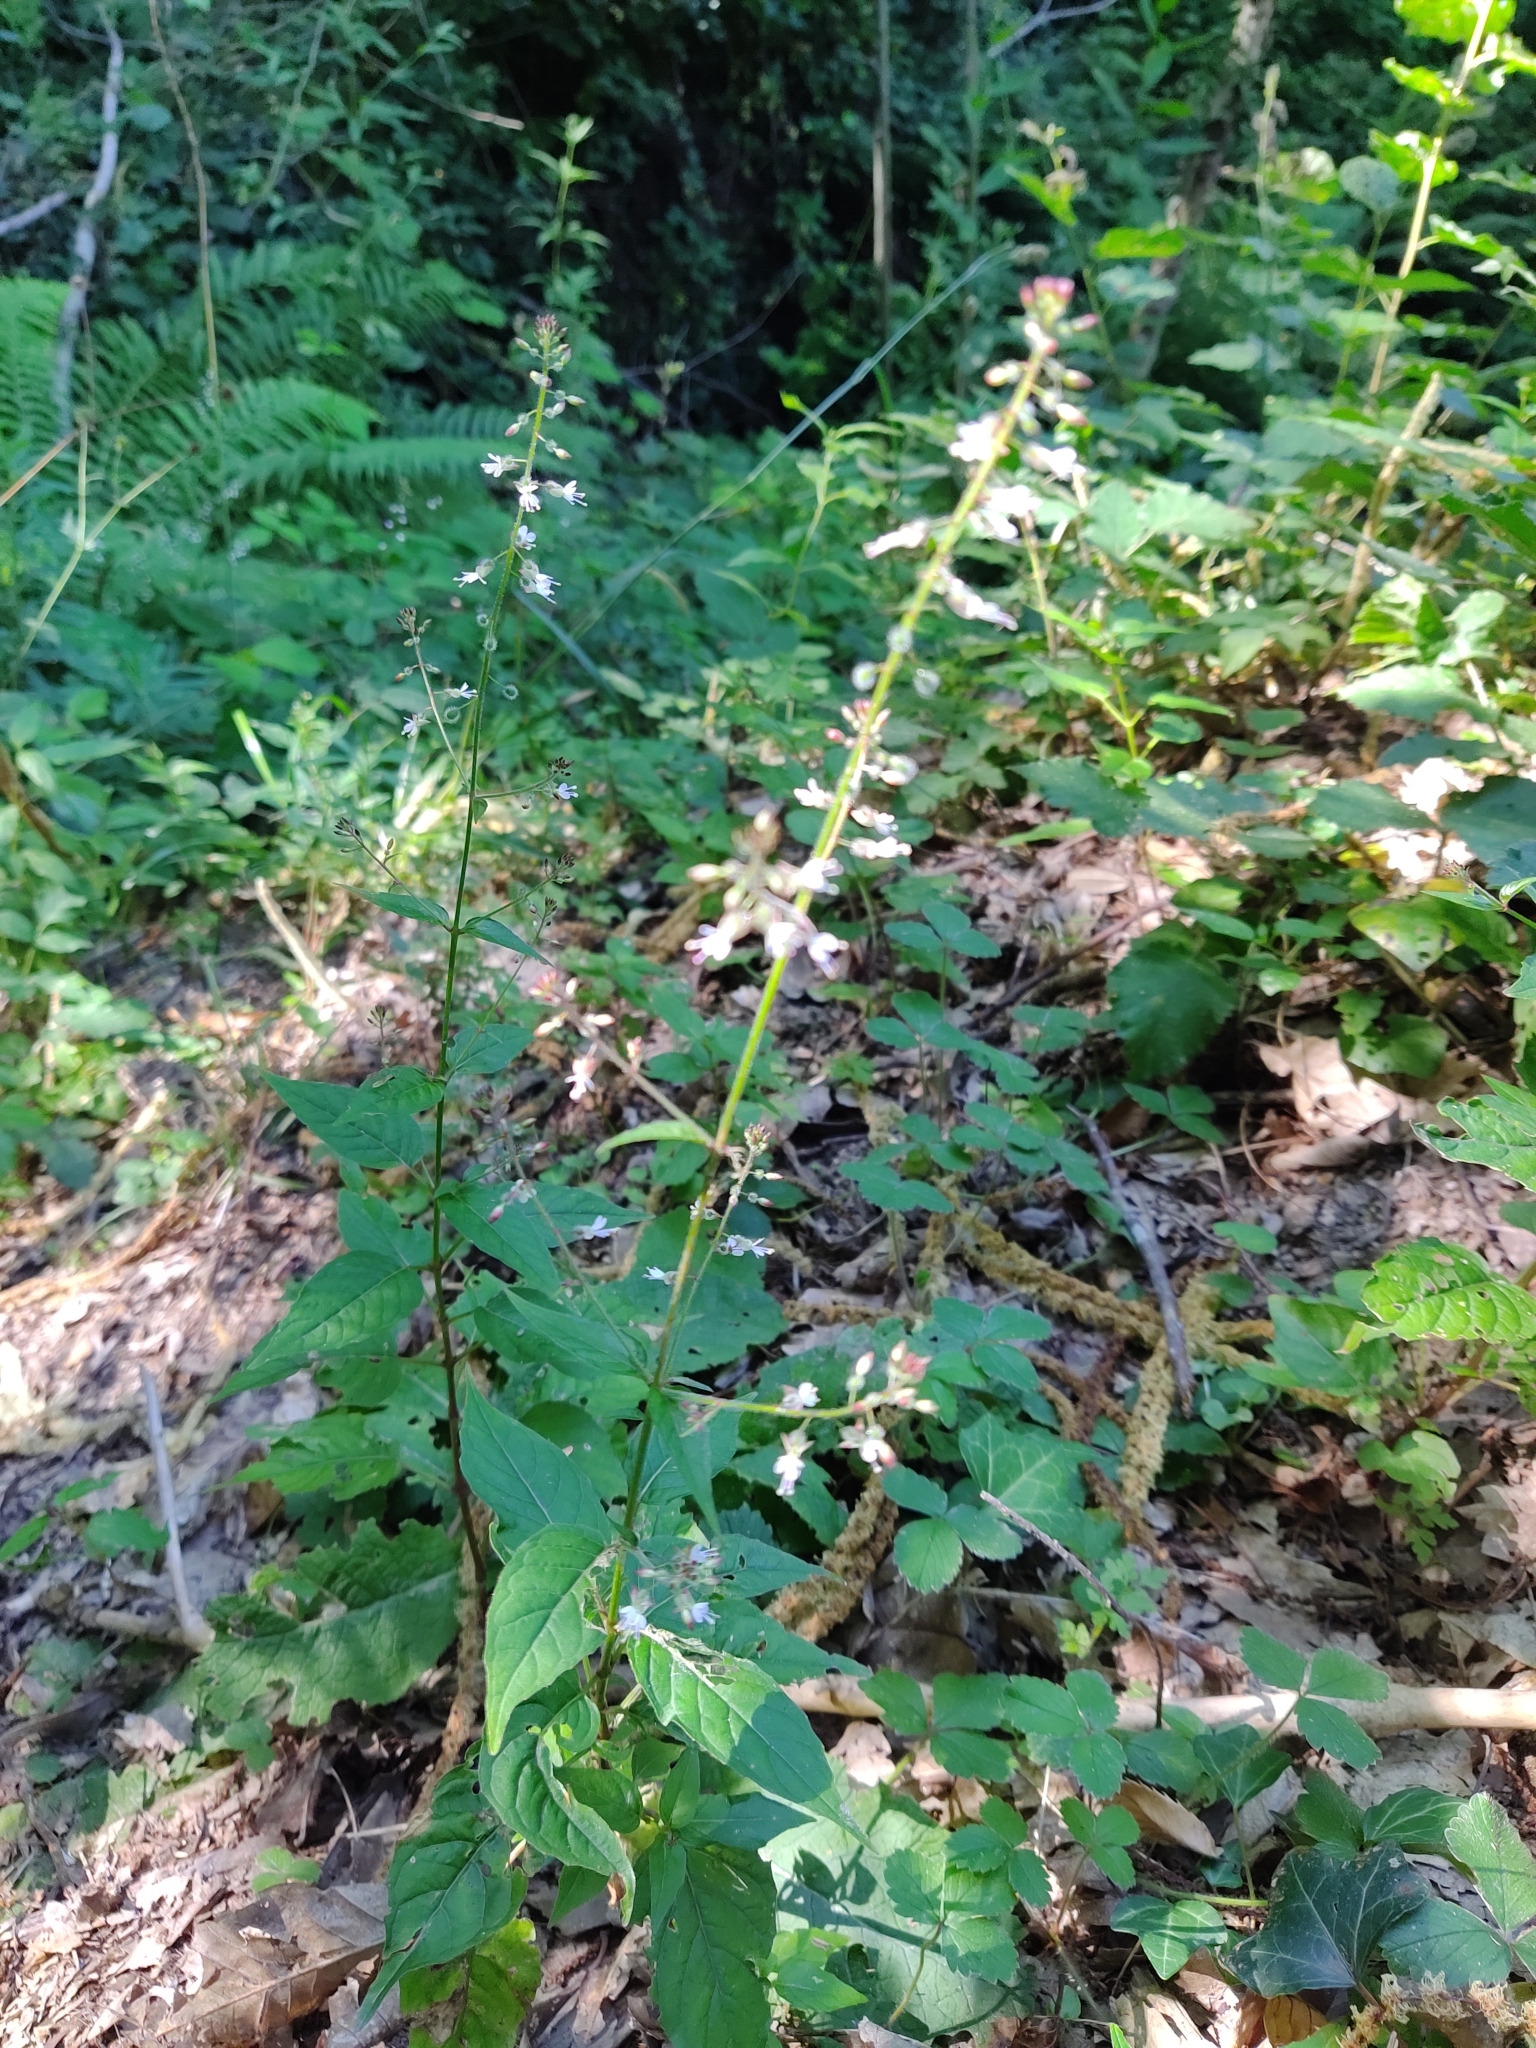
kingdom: Plantae
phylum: Tracheophyta
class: Magnoliopsida
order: Myrtales
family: Onagraceae
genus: Circaea
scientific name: Circaea lutetiana
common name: Enchanter's-nightshade
